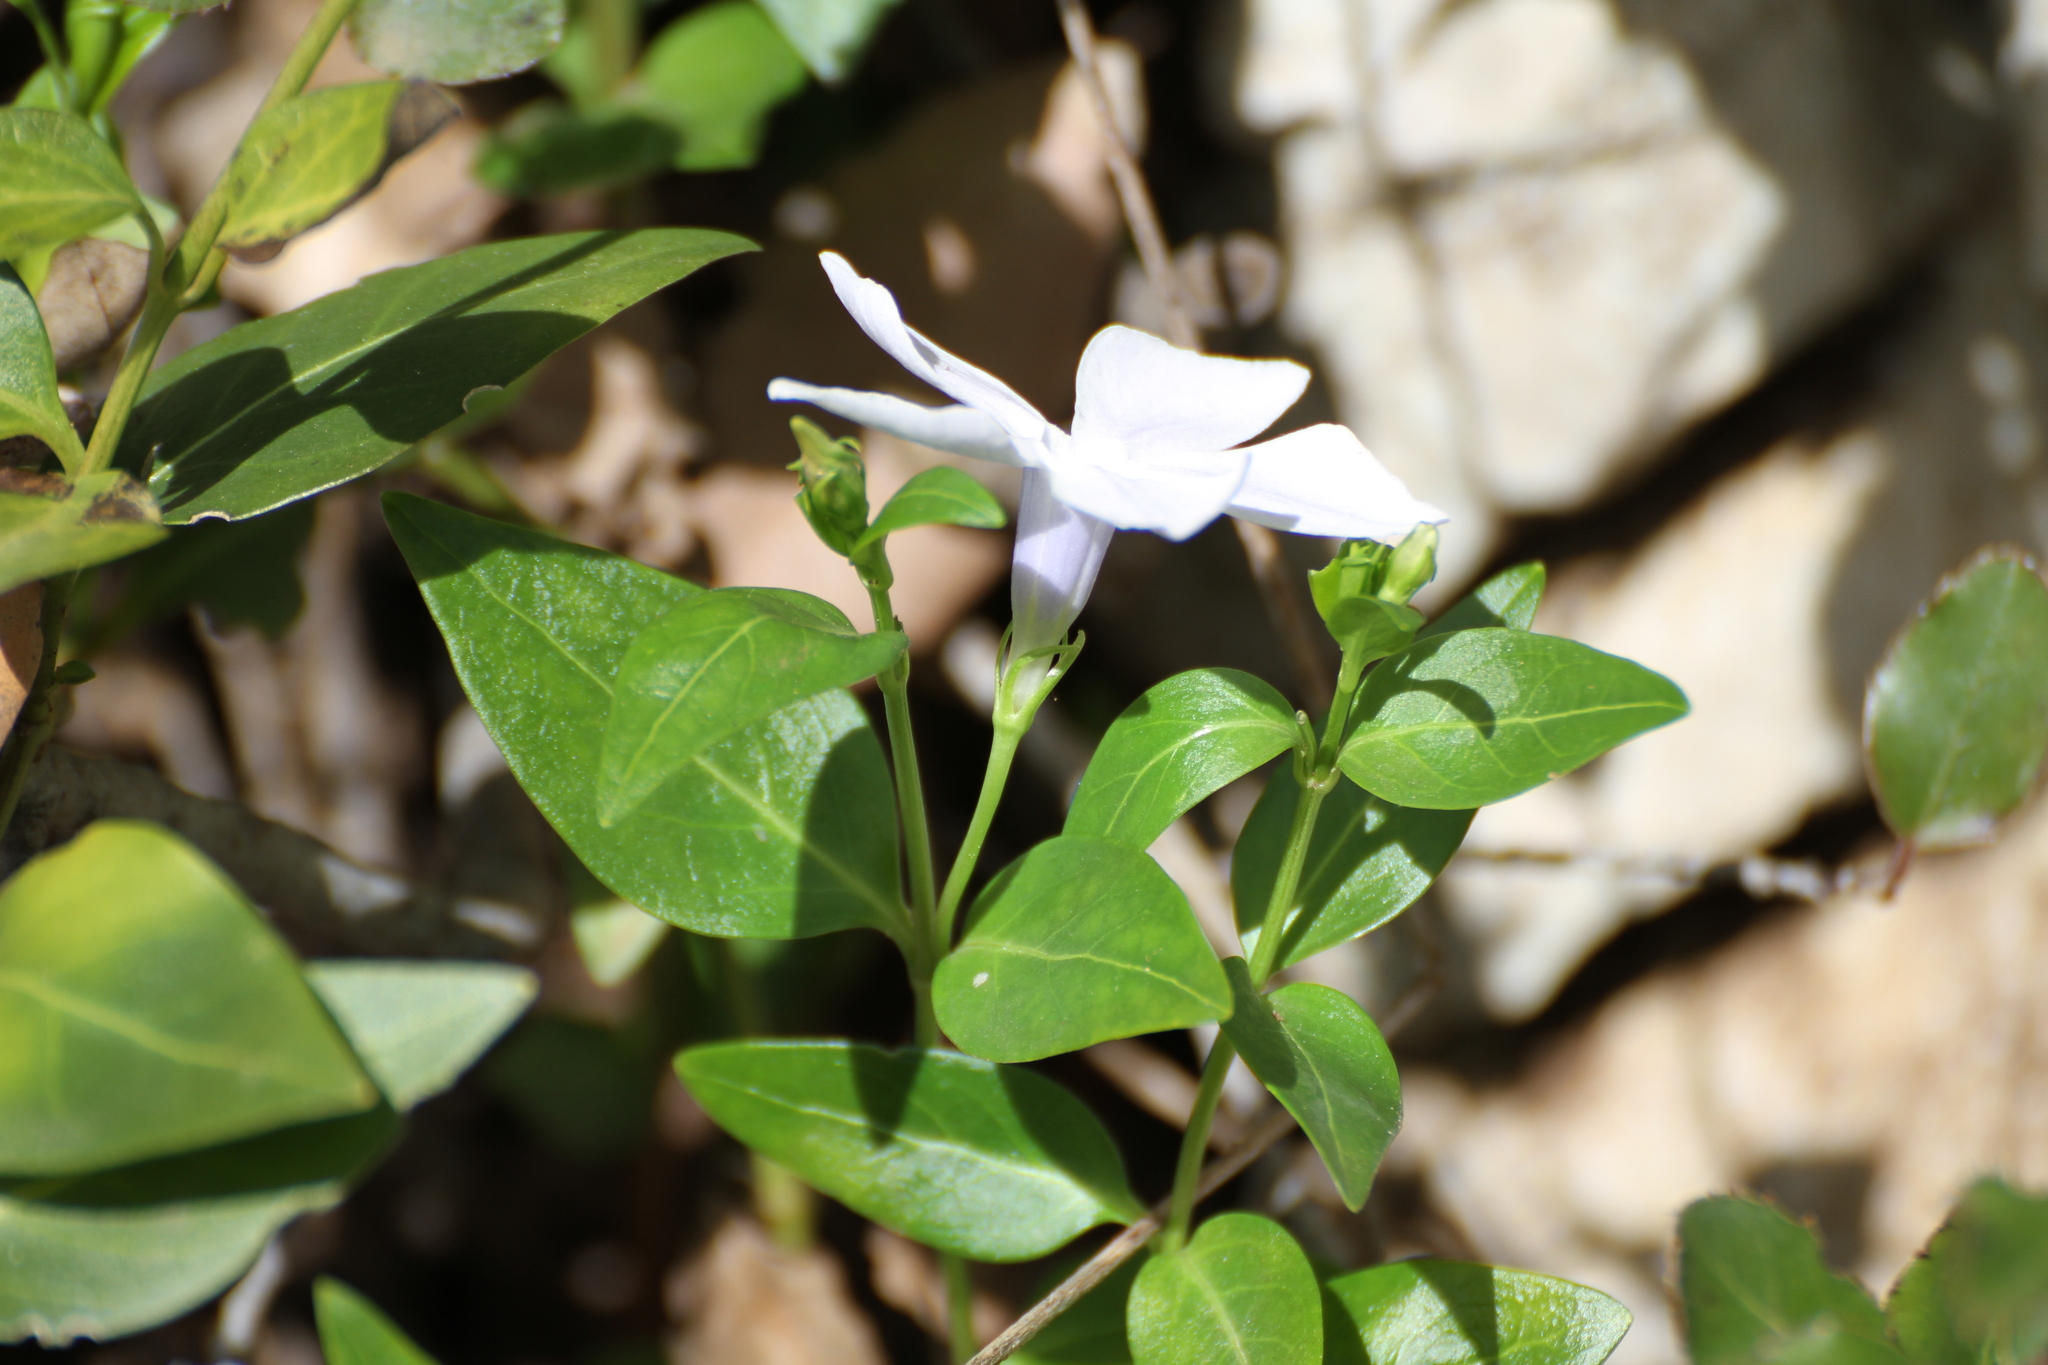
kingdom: Plantae
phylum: Tracheophyta
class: Magnoliopsida
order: Gentianales
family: Apocynaceae
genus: Vinca
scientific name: Vinca difformis
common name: Intermediate periwinkle
